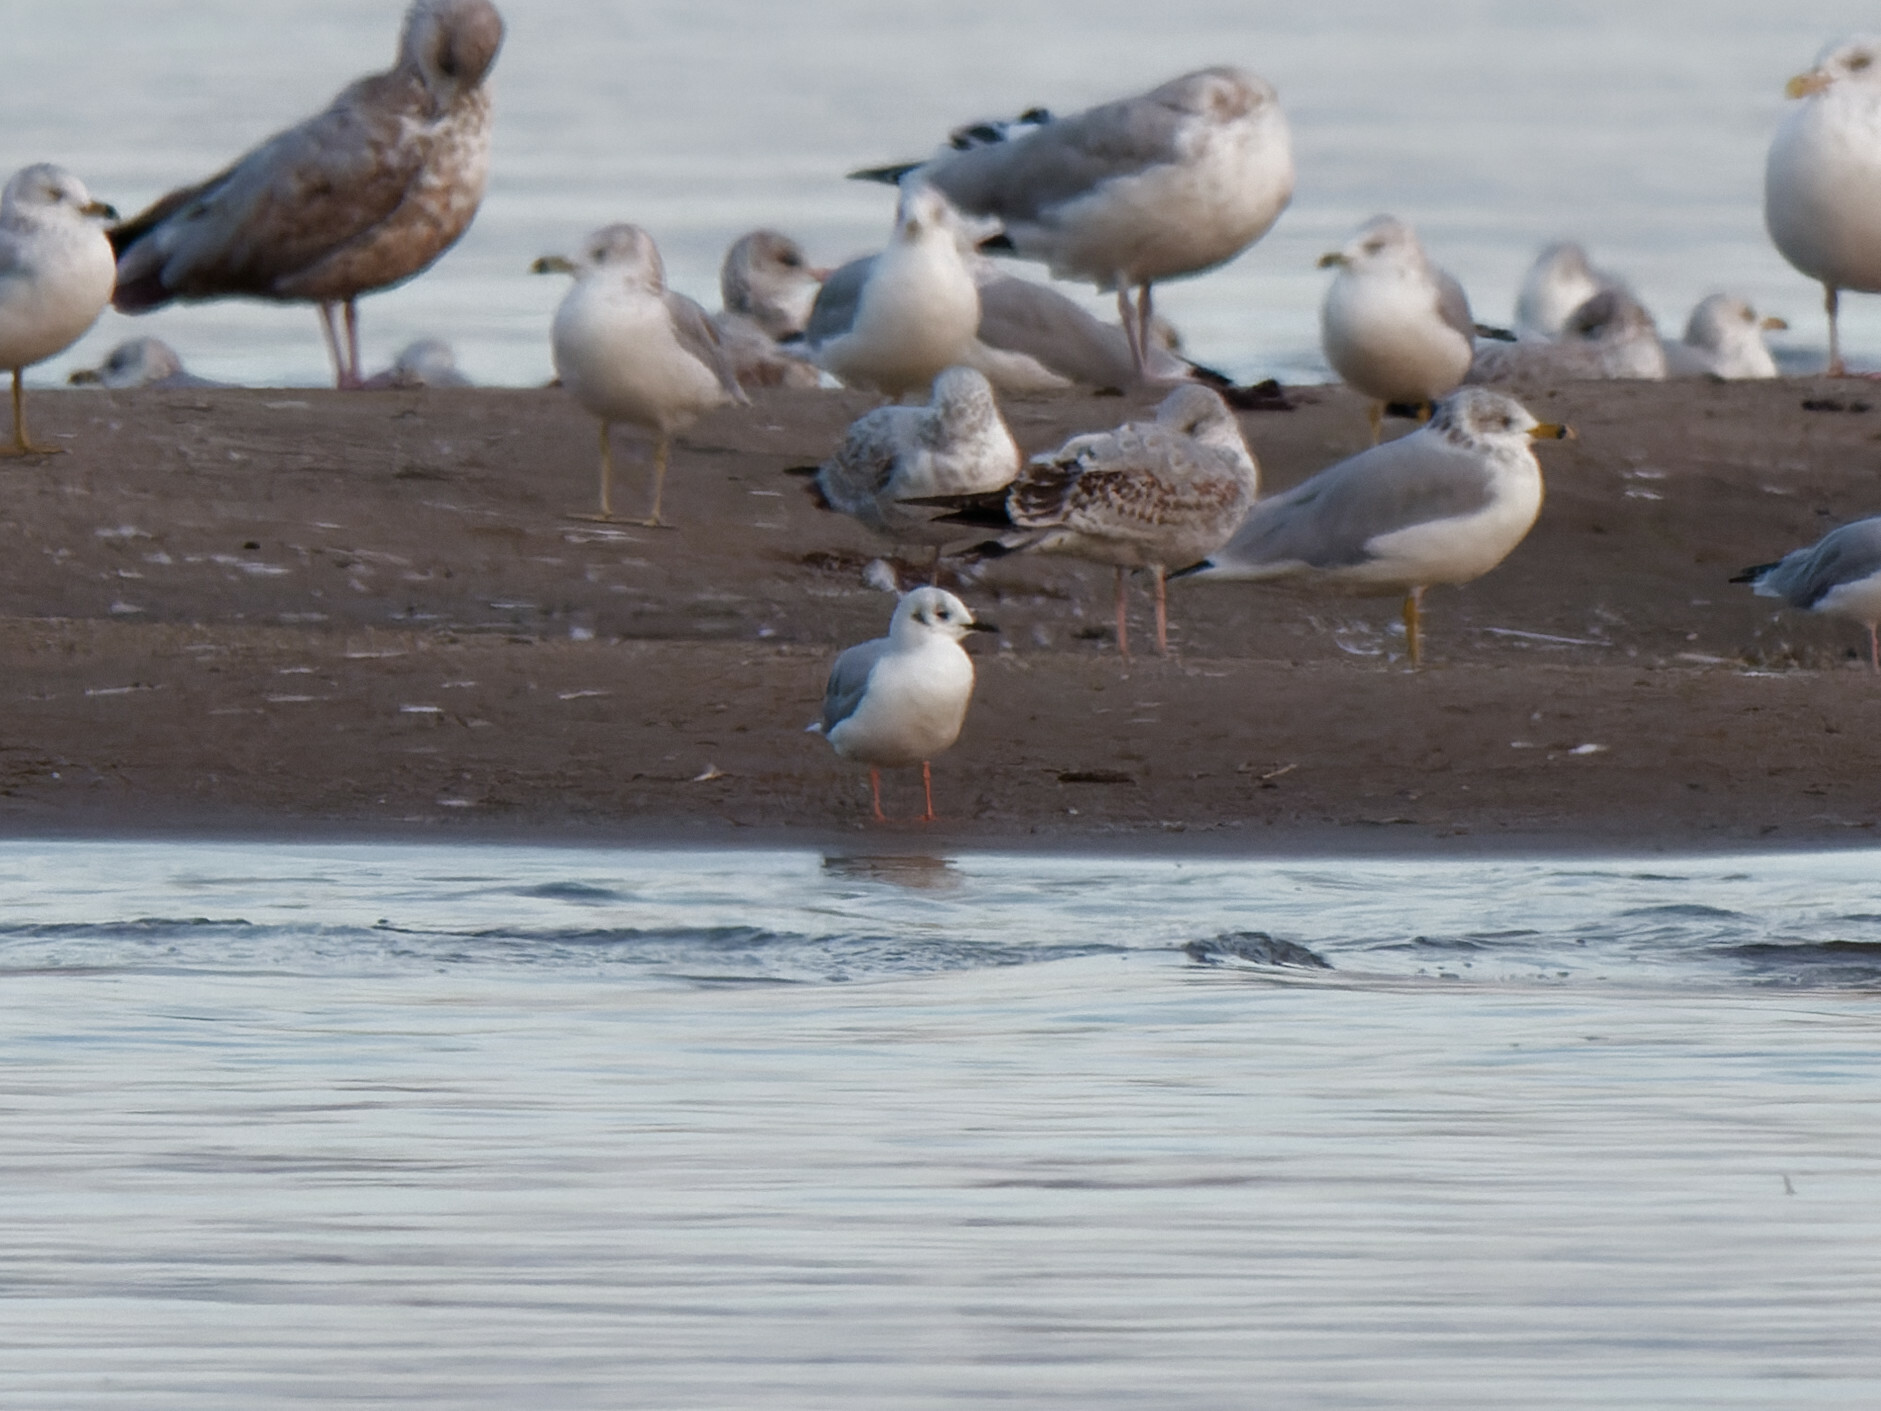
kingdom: Animalia
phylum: Chordata
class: Aves
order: Charadriiformes
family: Laridae
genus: Chroicocephalus
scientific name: Chroicocephalus philadelphia
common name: Bonaparte's gull
